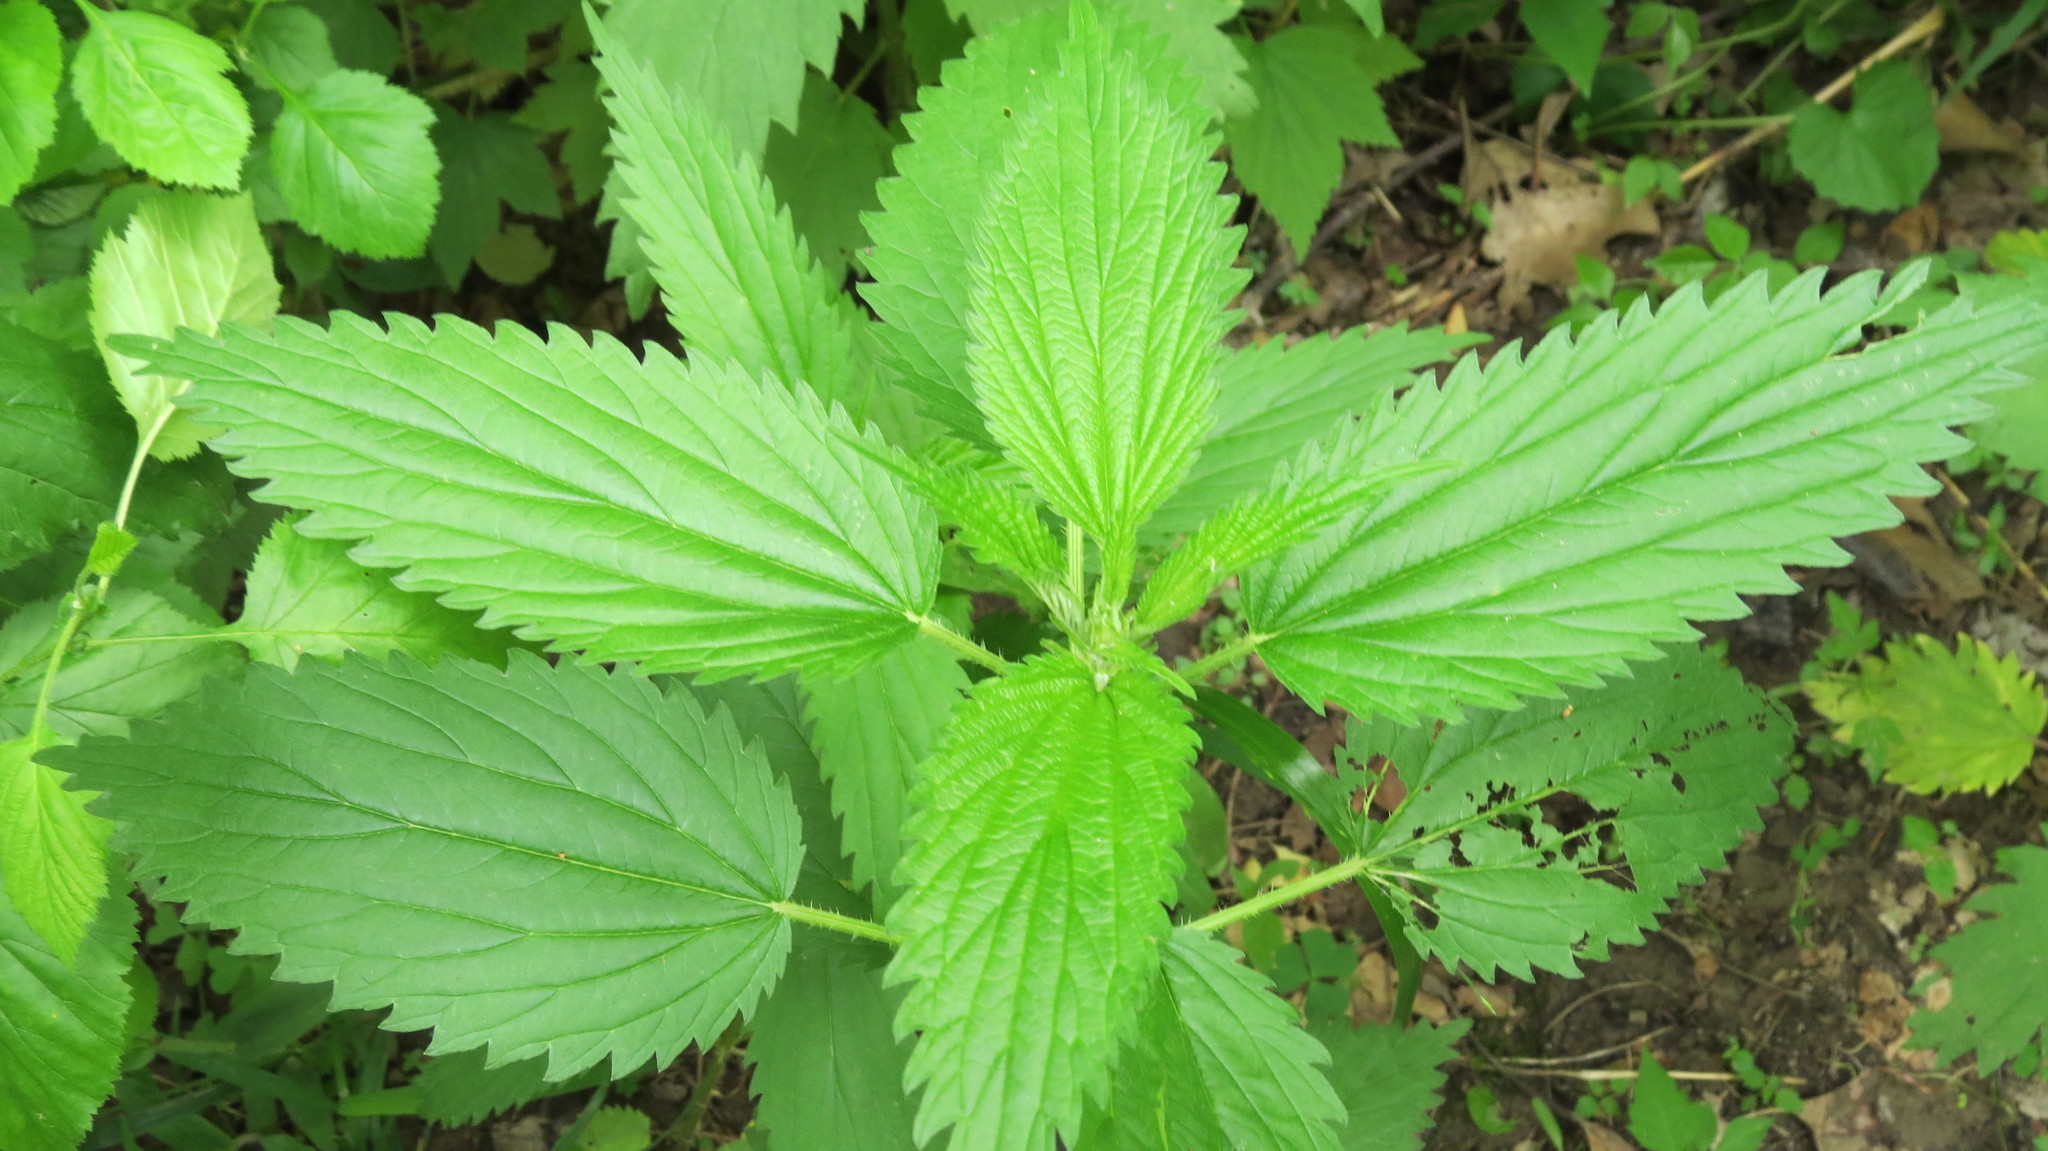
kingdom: Plantae
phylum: Tracheophyta
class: Magnoliopsida
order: Rosales
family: Urticaceae
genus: Urtica
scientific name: Urtica dioica
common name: Common nettle
